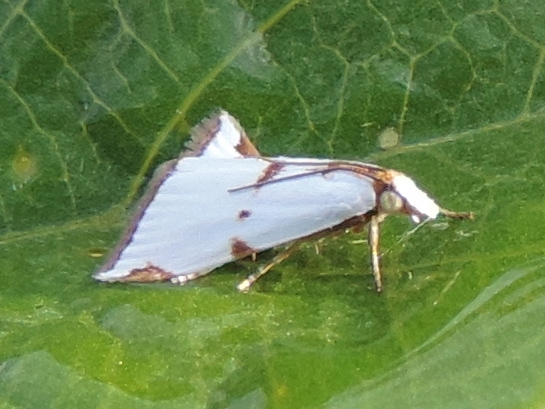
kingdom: Animalia
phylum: Arthropoda
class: Insecta
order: Lepidoptera
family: Crambidae
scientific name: Crambidae
